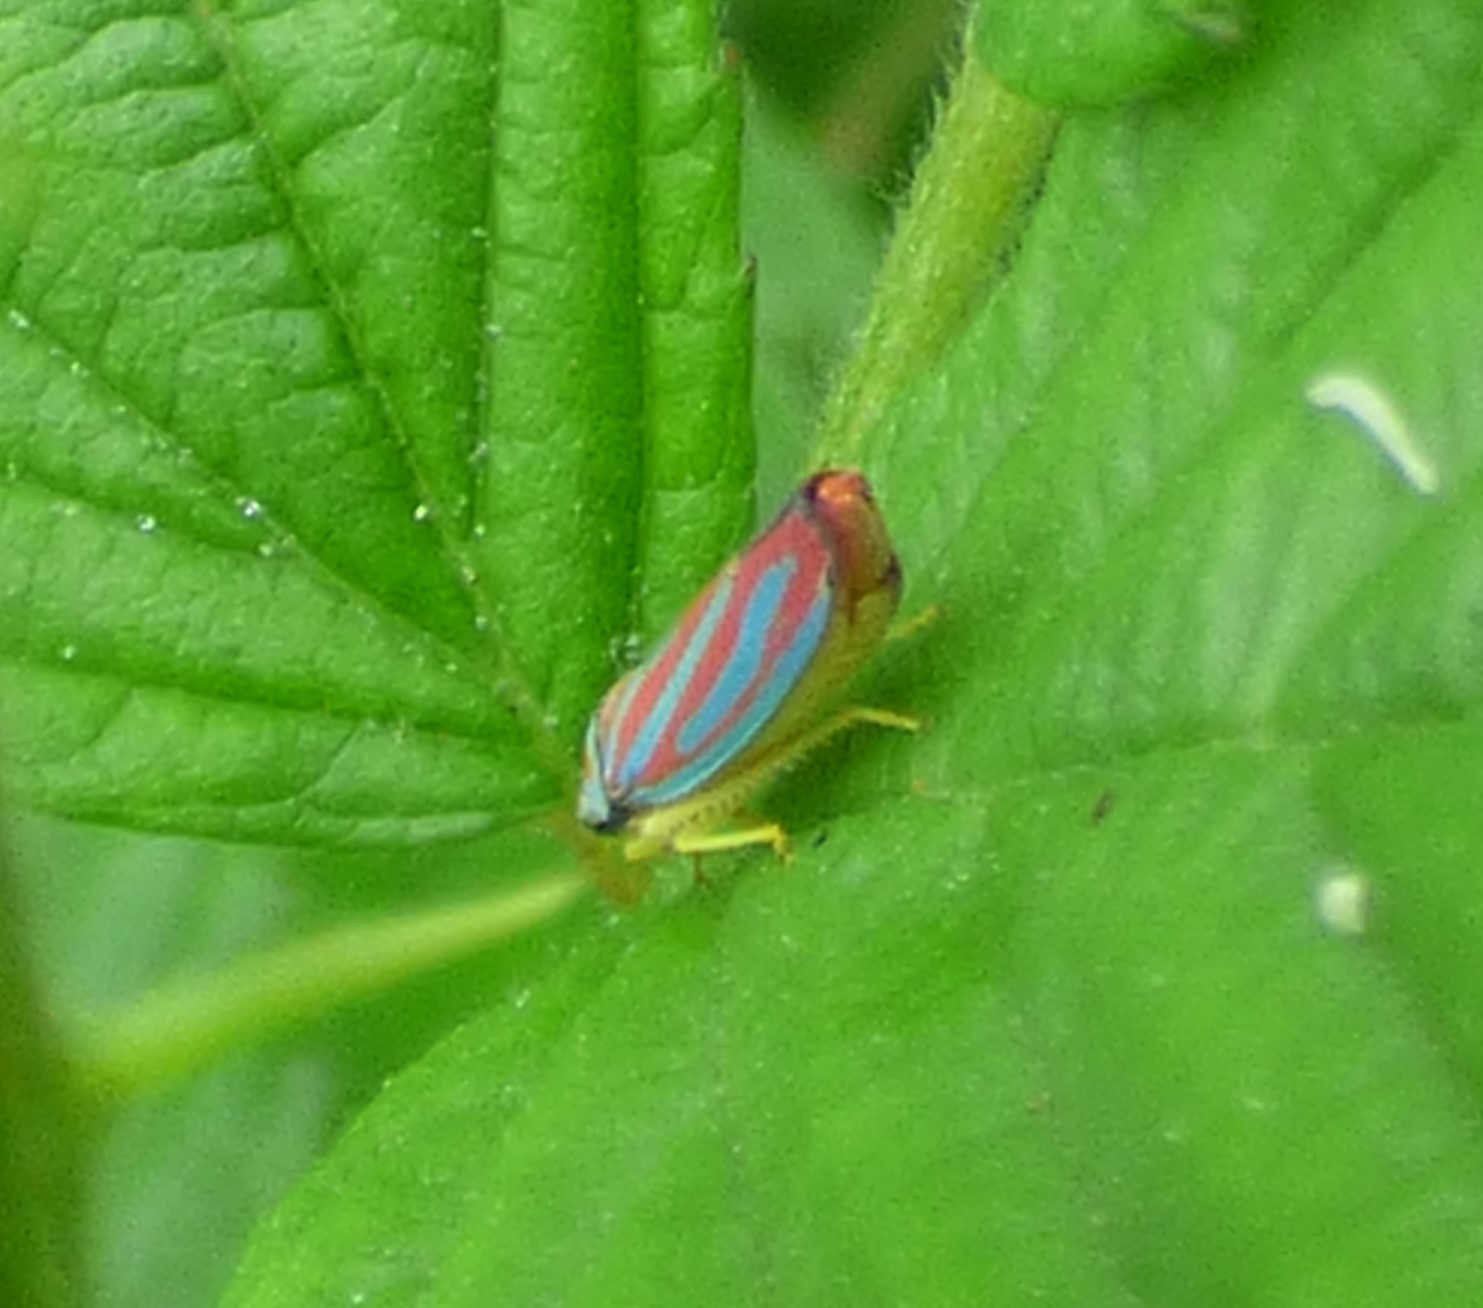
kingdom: Animalia
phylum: Arthropoda
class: Insecta
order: Hemiptera
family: Cicadellidae
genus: Graphocephala
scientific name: Graphocephala coccinea
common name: Candy-striped leafhopper
